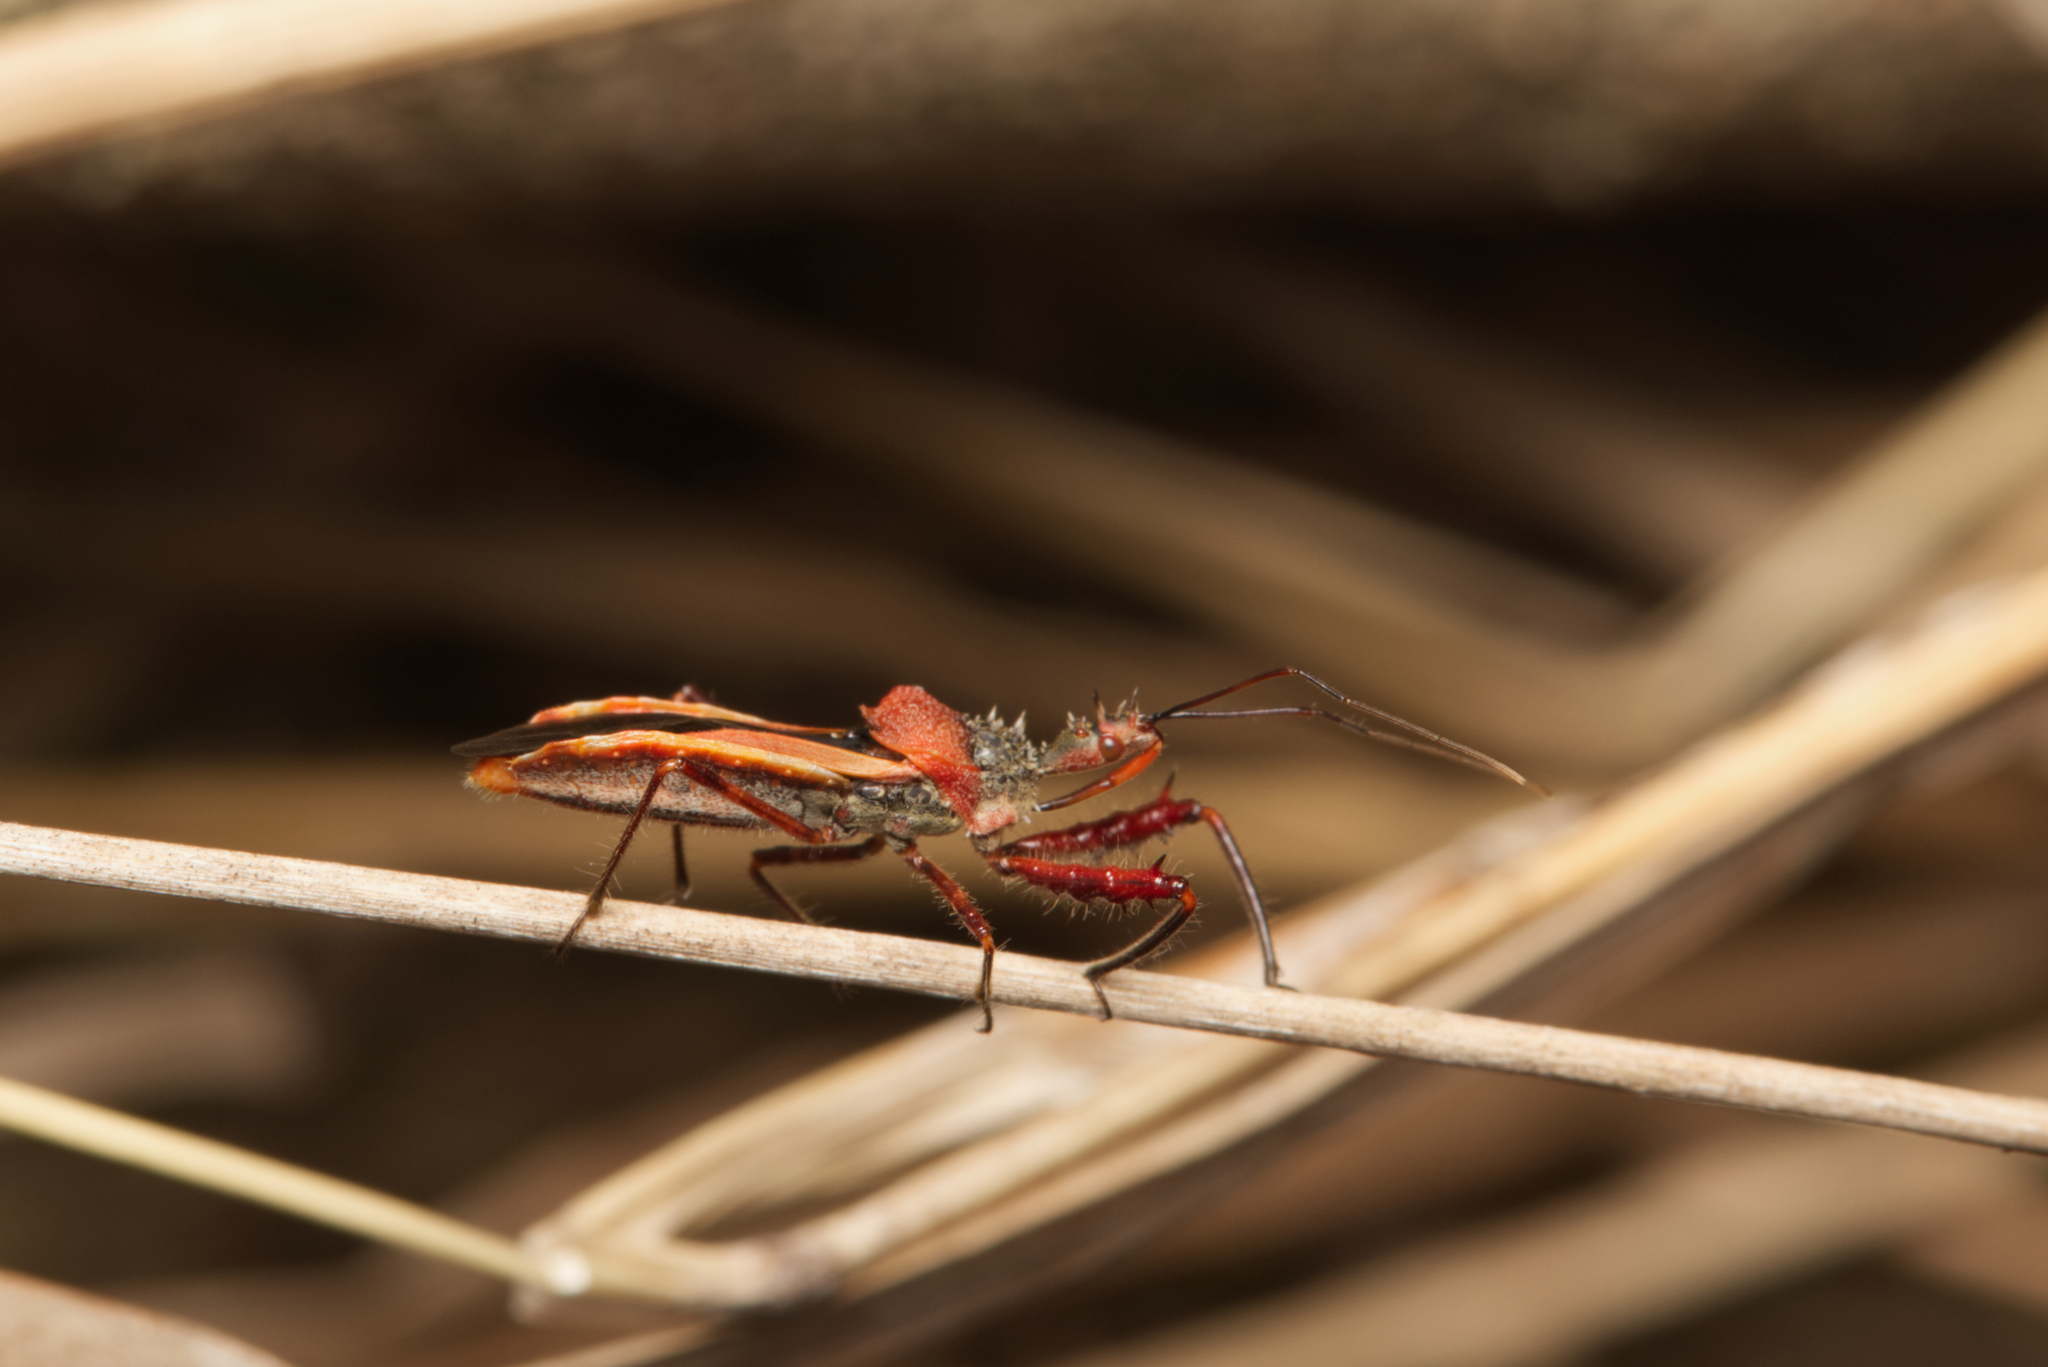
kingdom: Animalia
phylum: Arthropoda
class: Insecta
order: Hemiptera
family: Reduviidae
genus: Scipinia
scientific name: Scipinia arenacea
